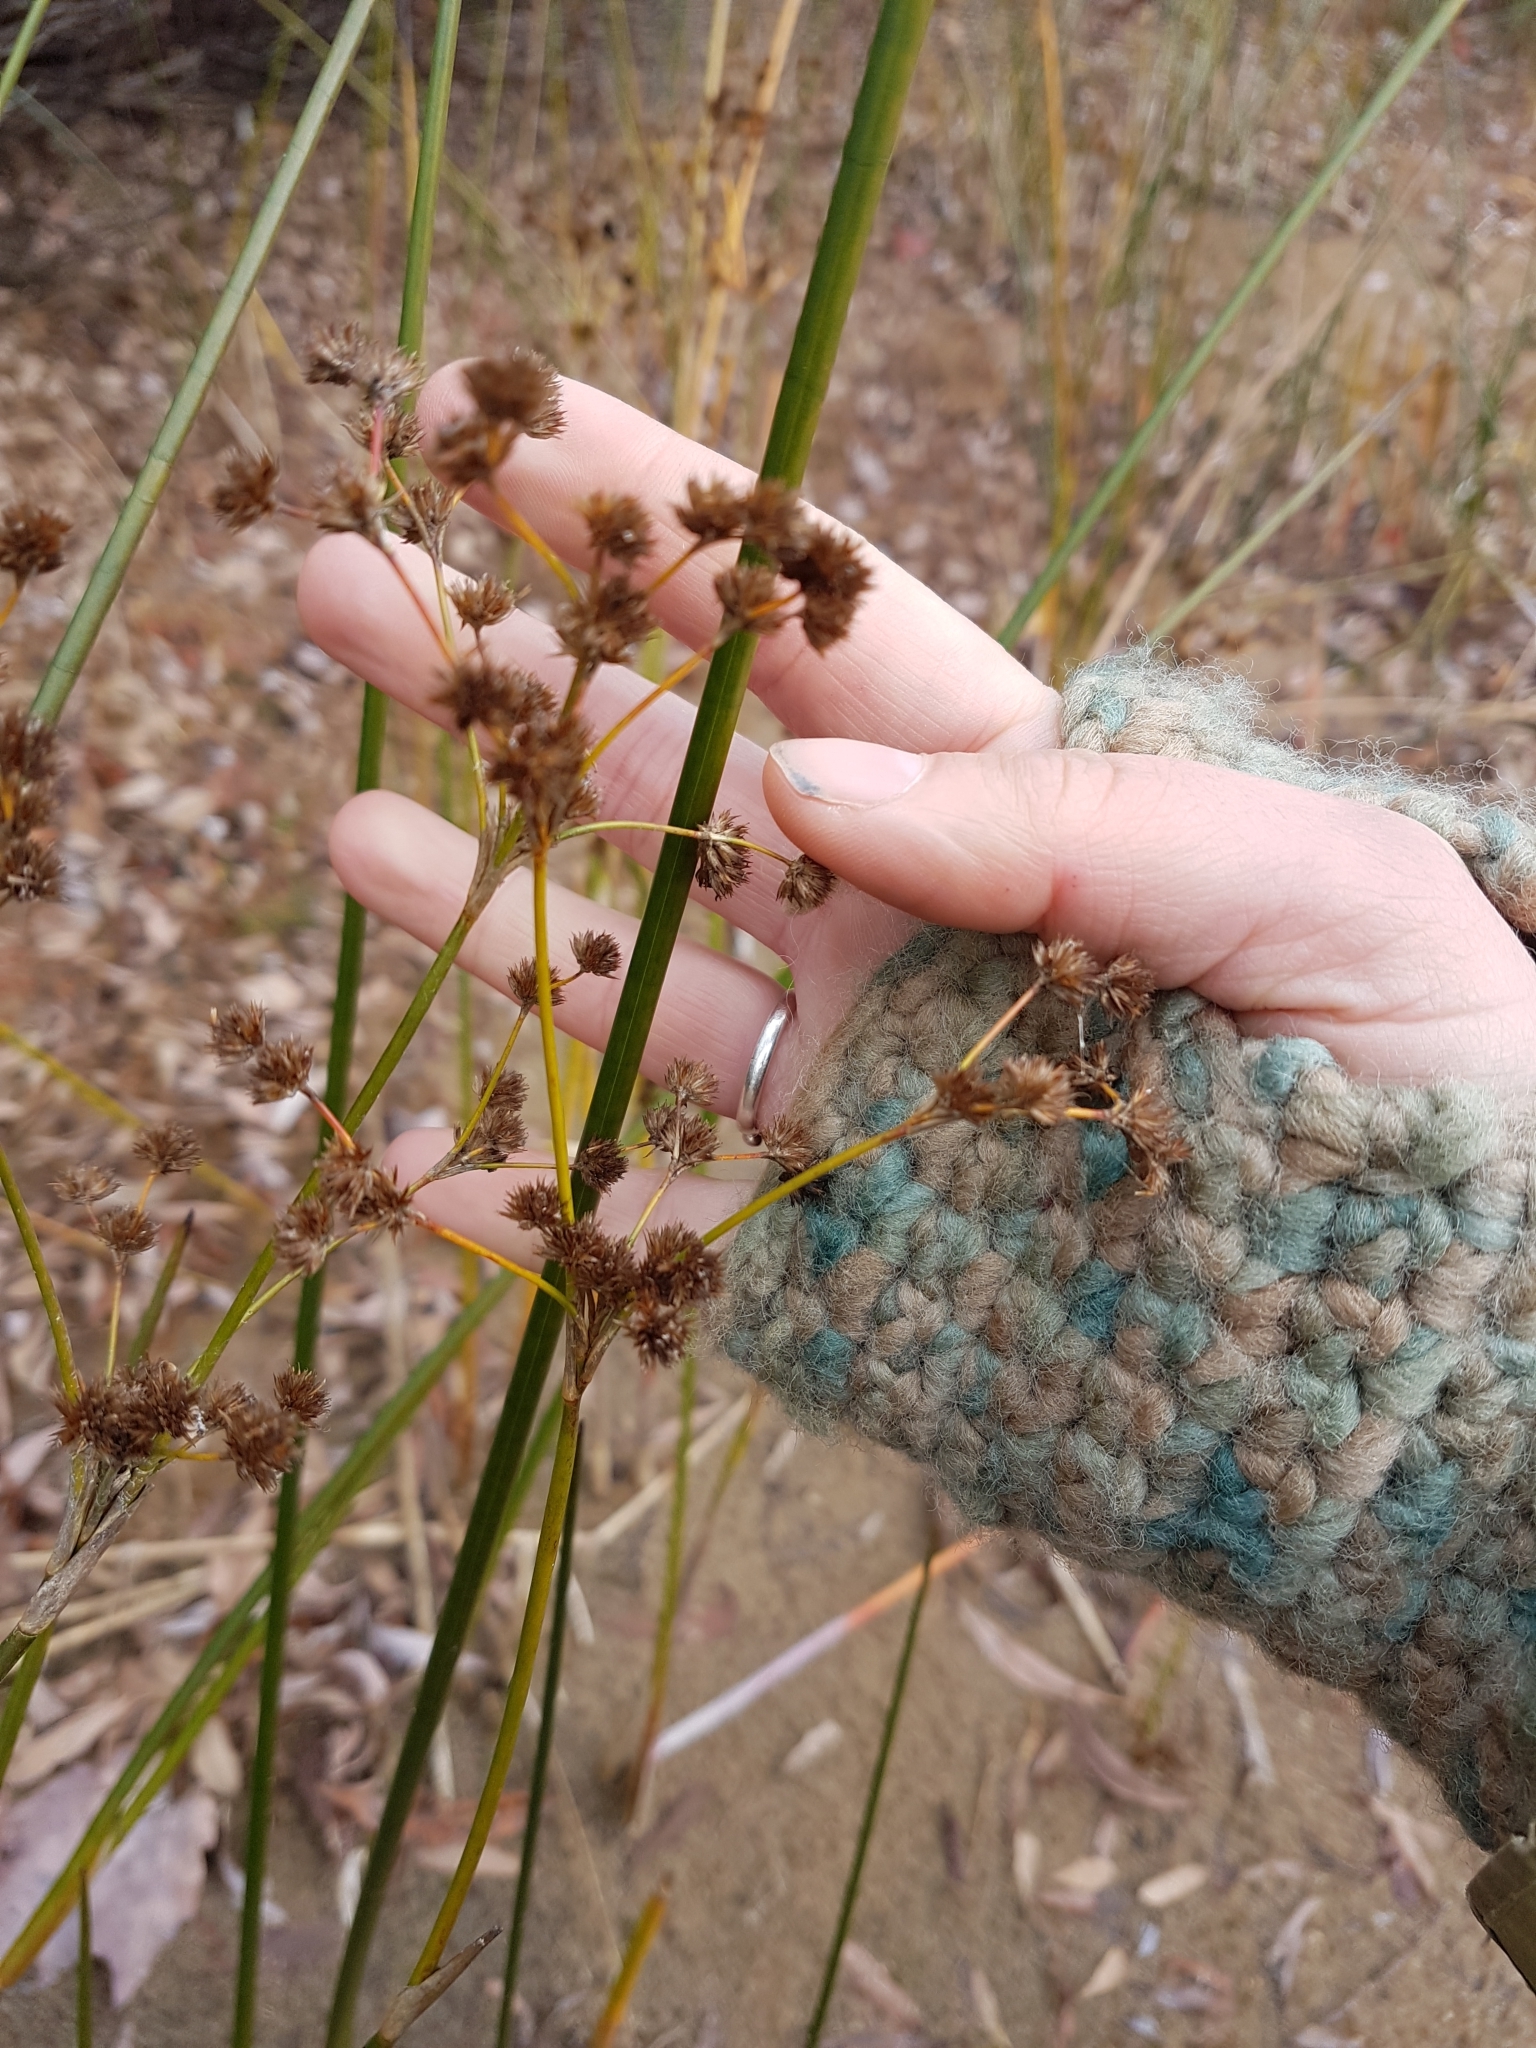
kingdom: Plantae
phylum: Tracheophyta
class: Liliopsida
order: Poales
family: Juncaceae
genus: Juncus
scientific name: Juncus canadensis
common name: Canada rush
